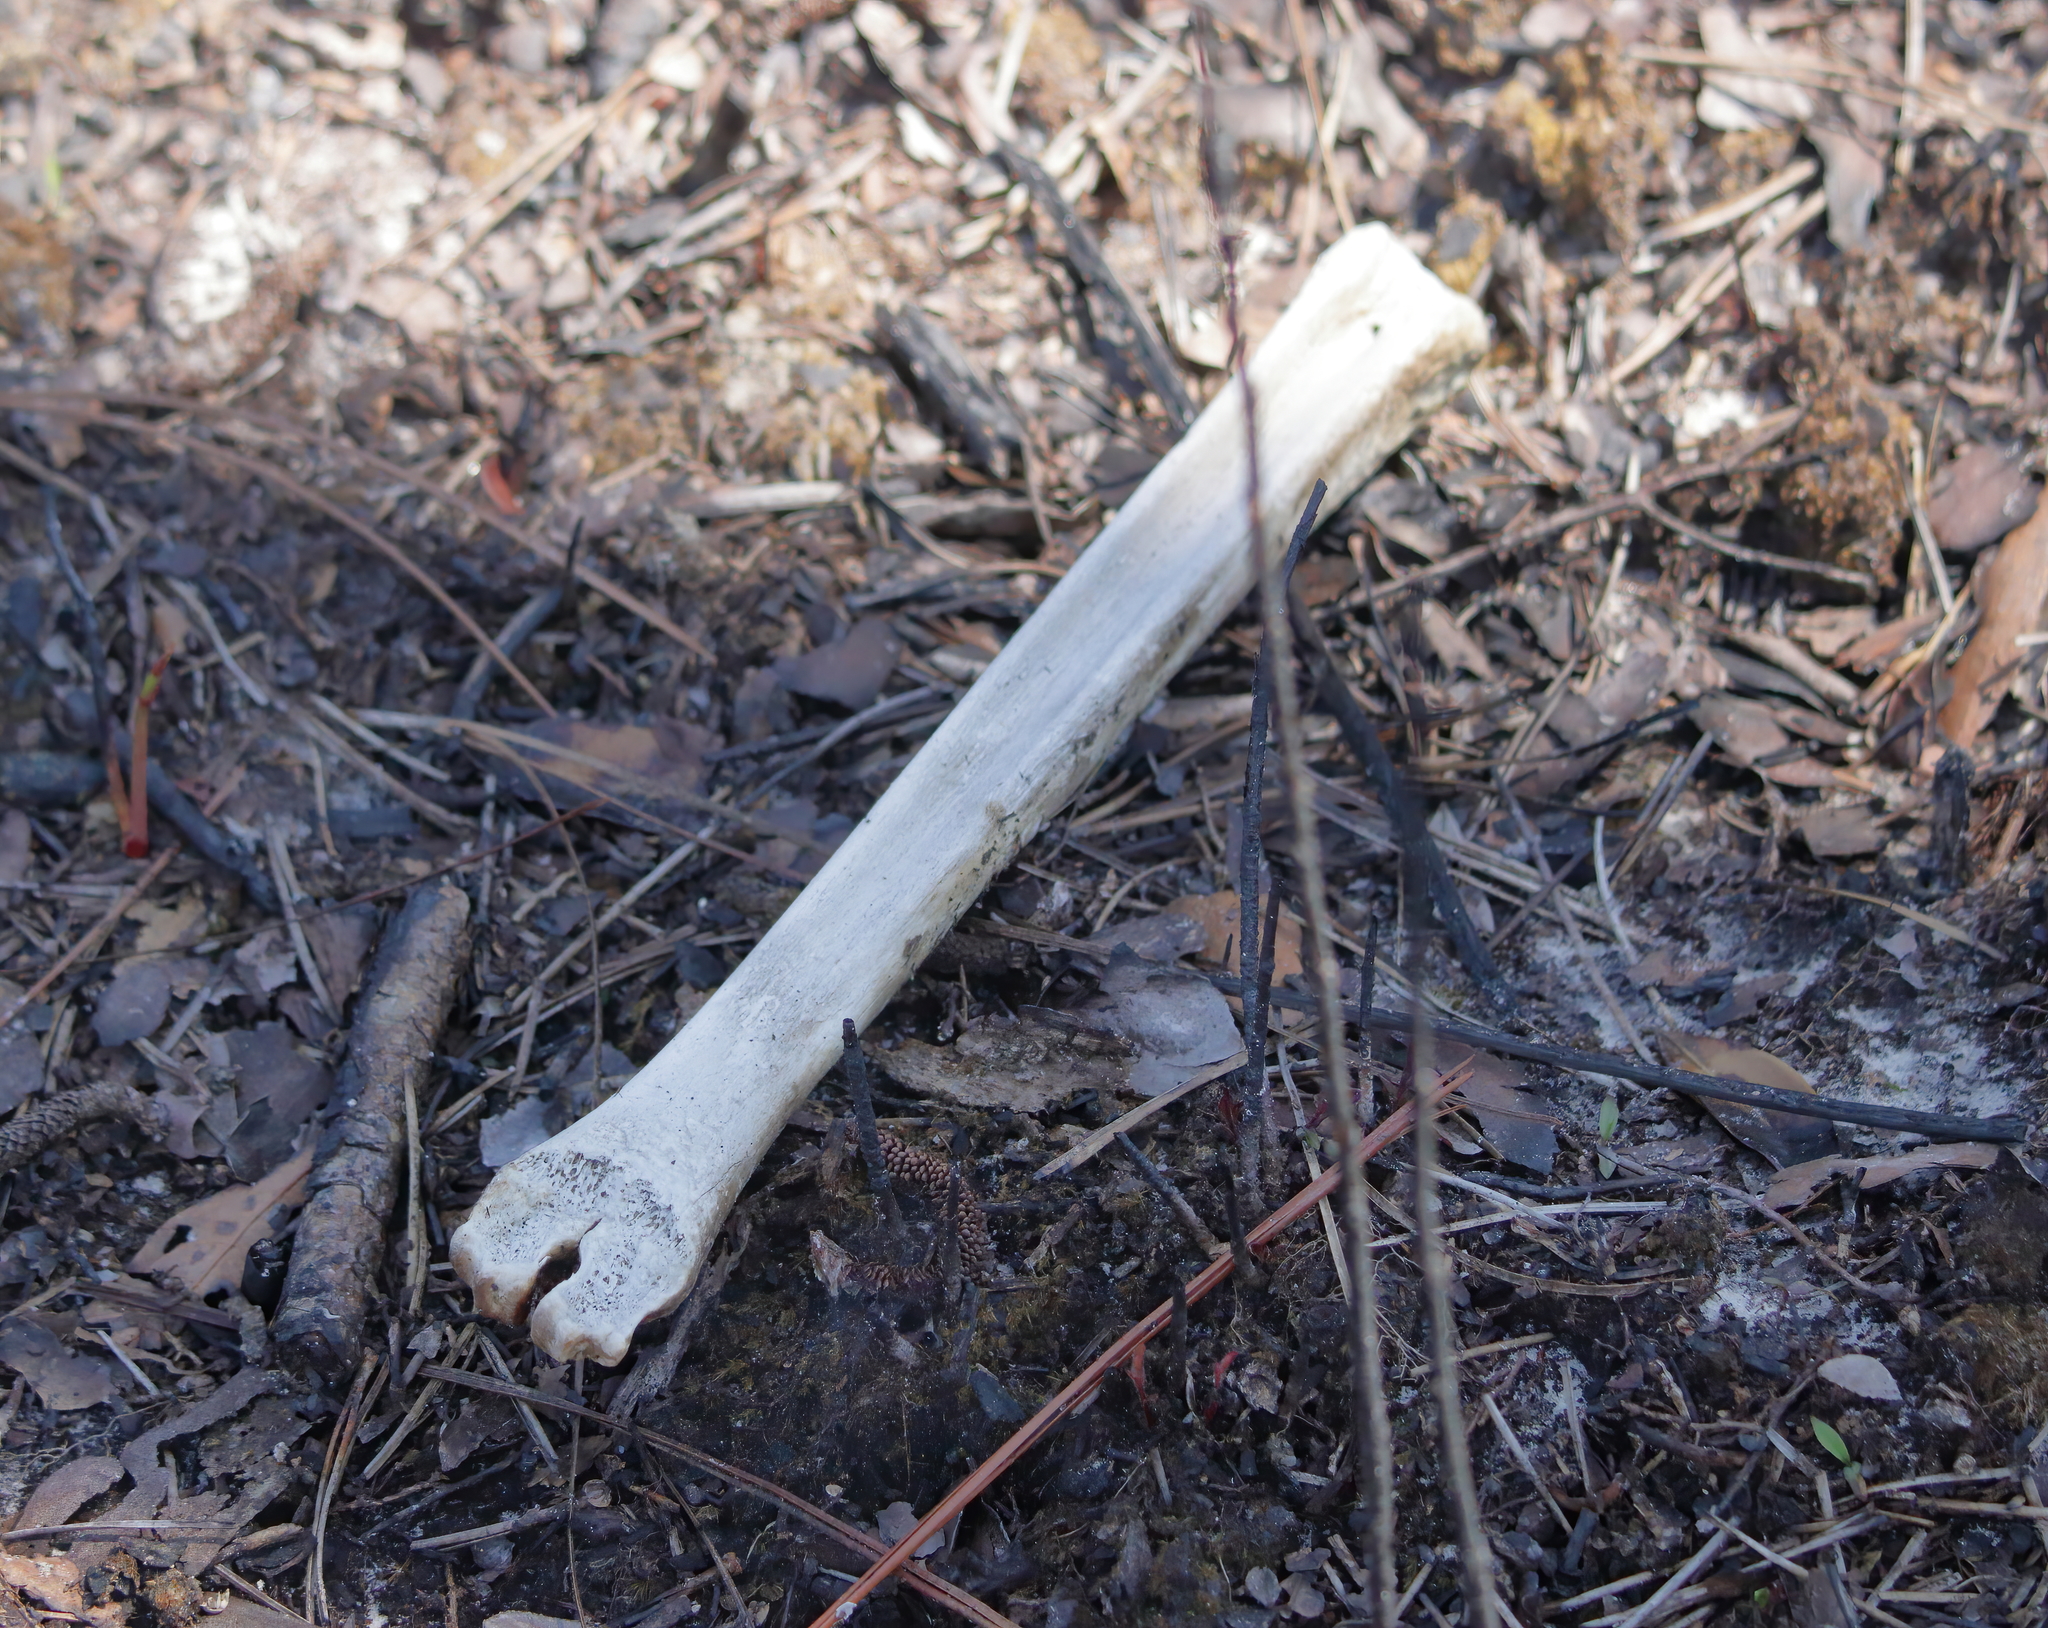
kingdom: Animalia
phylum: Chordata
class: Mammalia
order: Artiodactyla
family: Cervidae
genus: Odocoileus
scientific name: Odocoileus virginianus
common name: White-tailed deer
